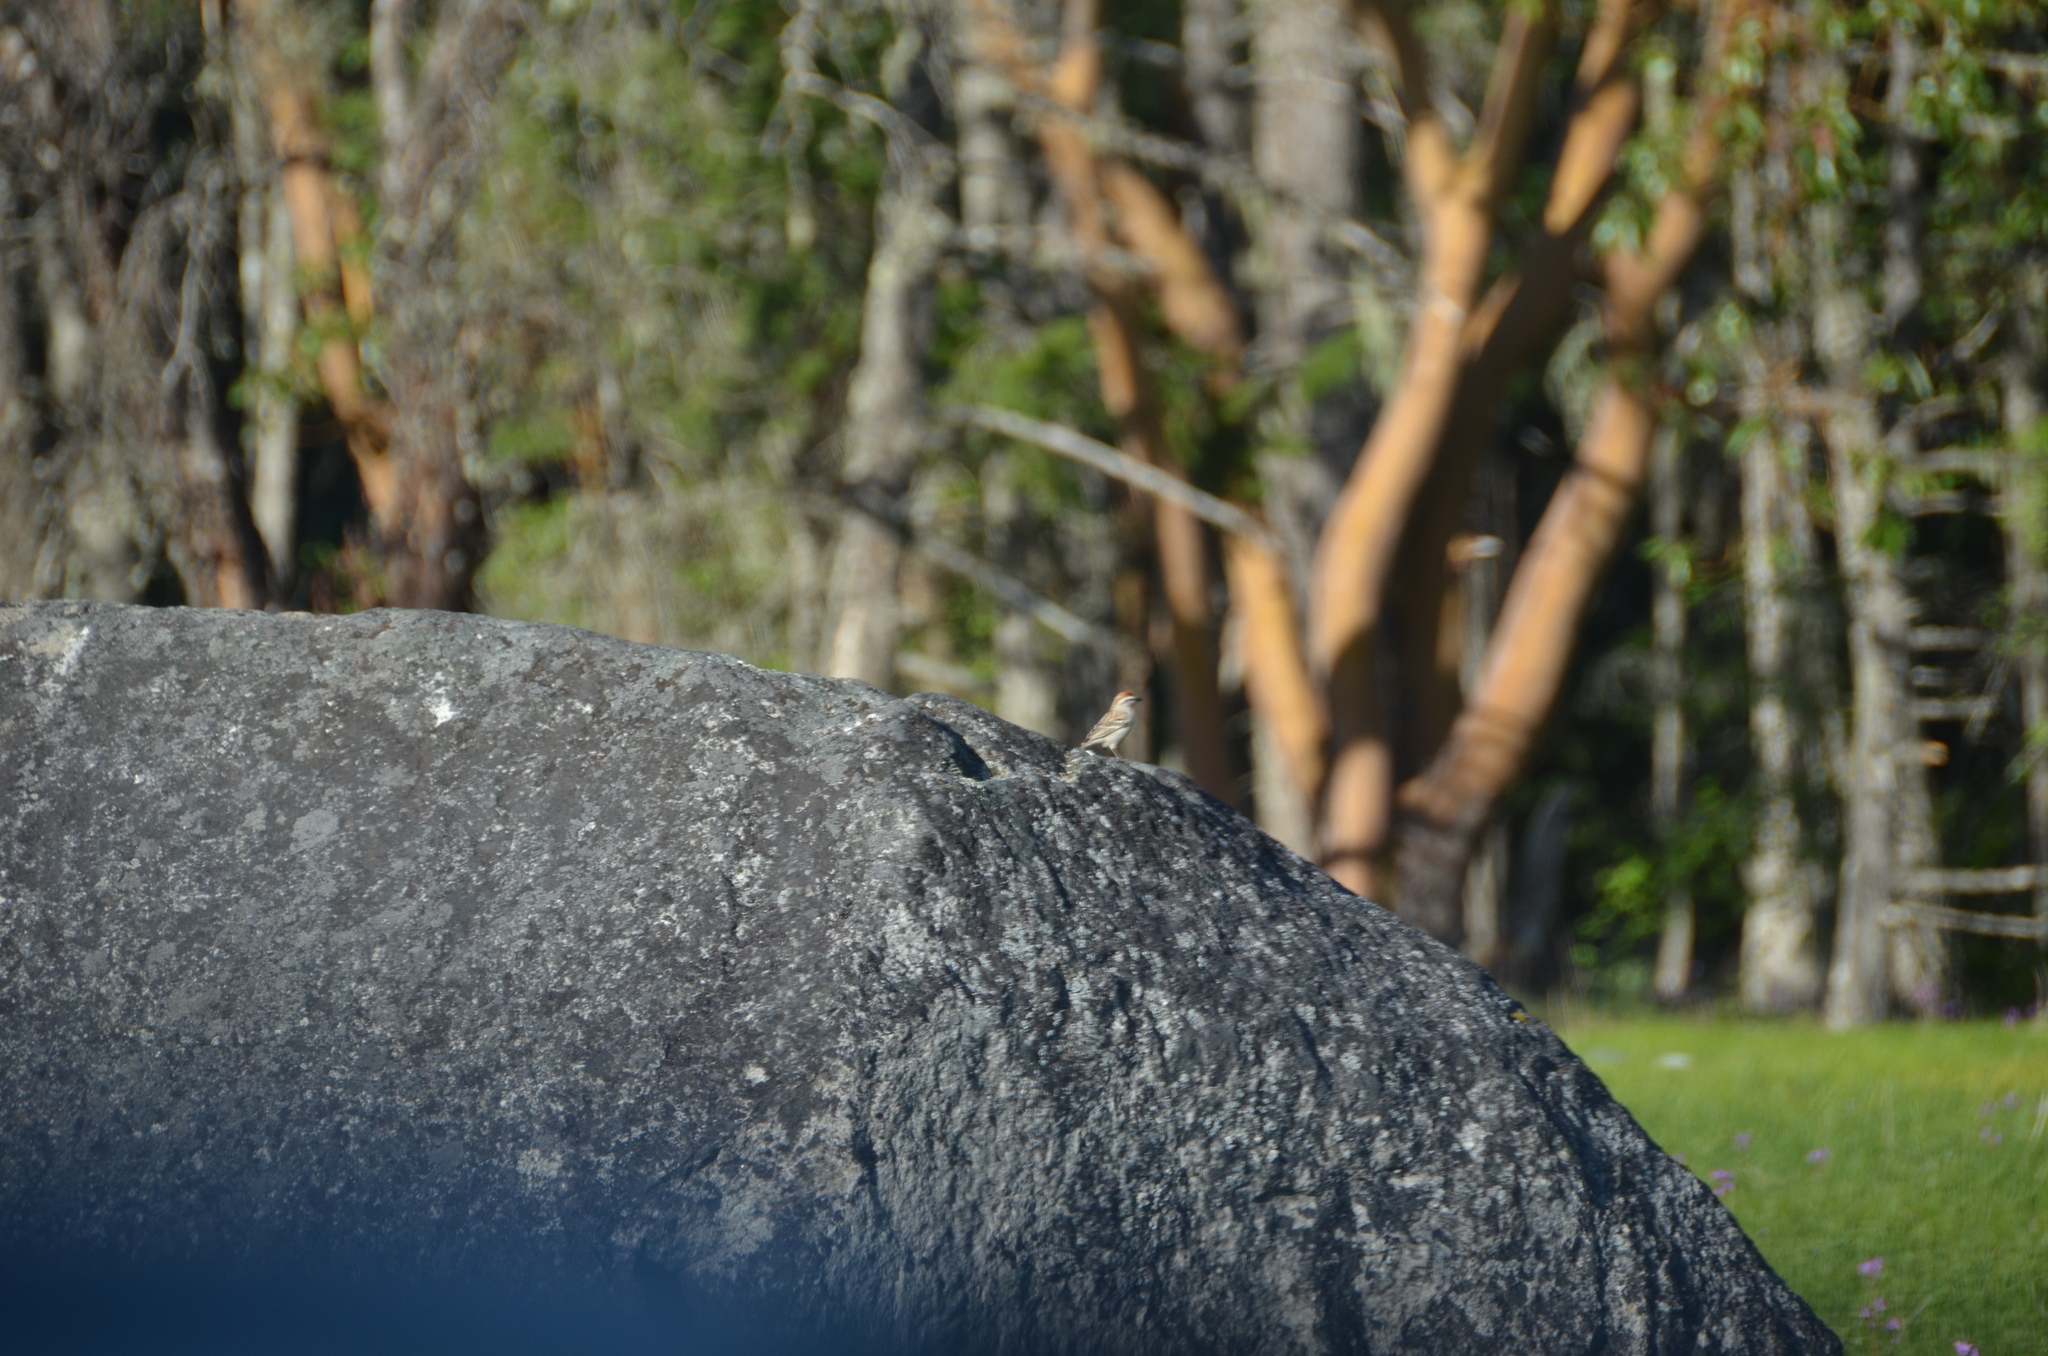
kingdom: Animalia
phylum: Chordata
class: Aves
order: Passeriformes
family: Passerellidae
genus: Spizella
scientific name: Spizella passerina
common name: Chipping sparrow
